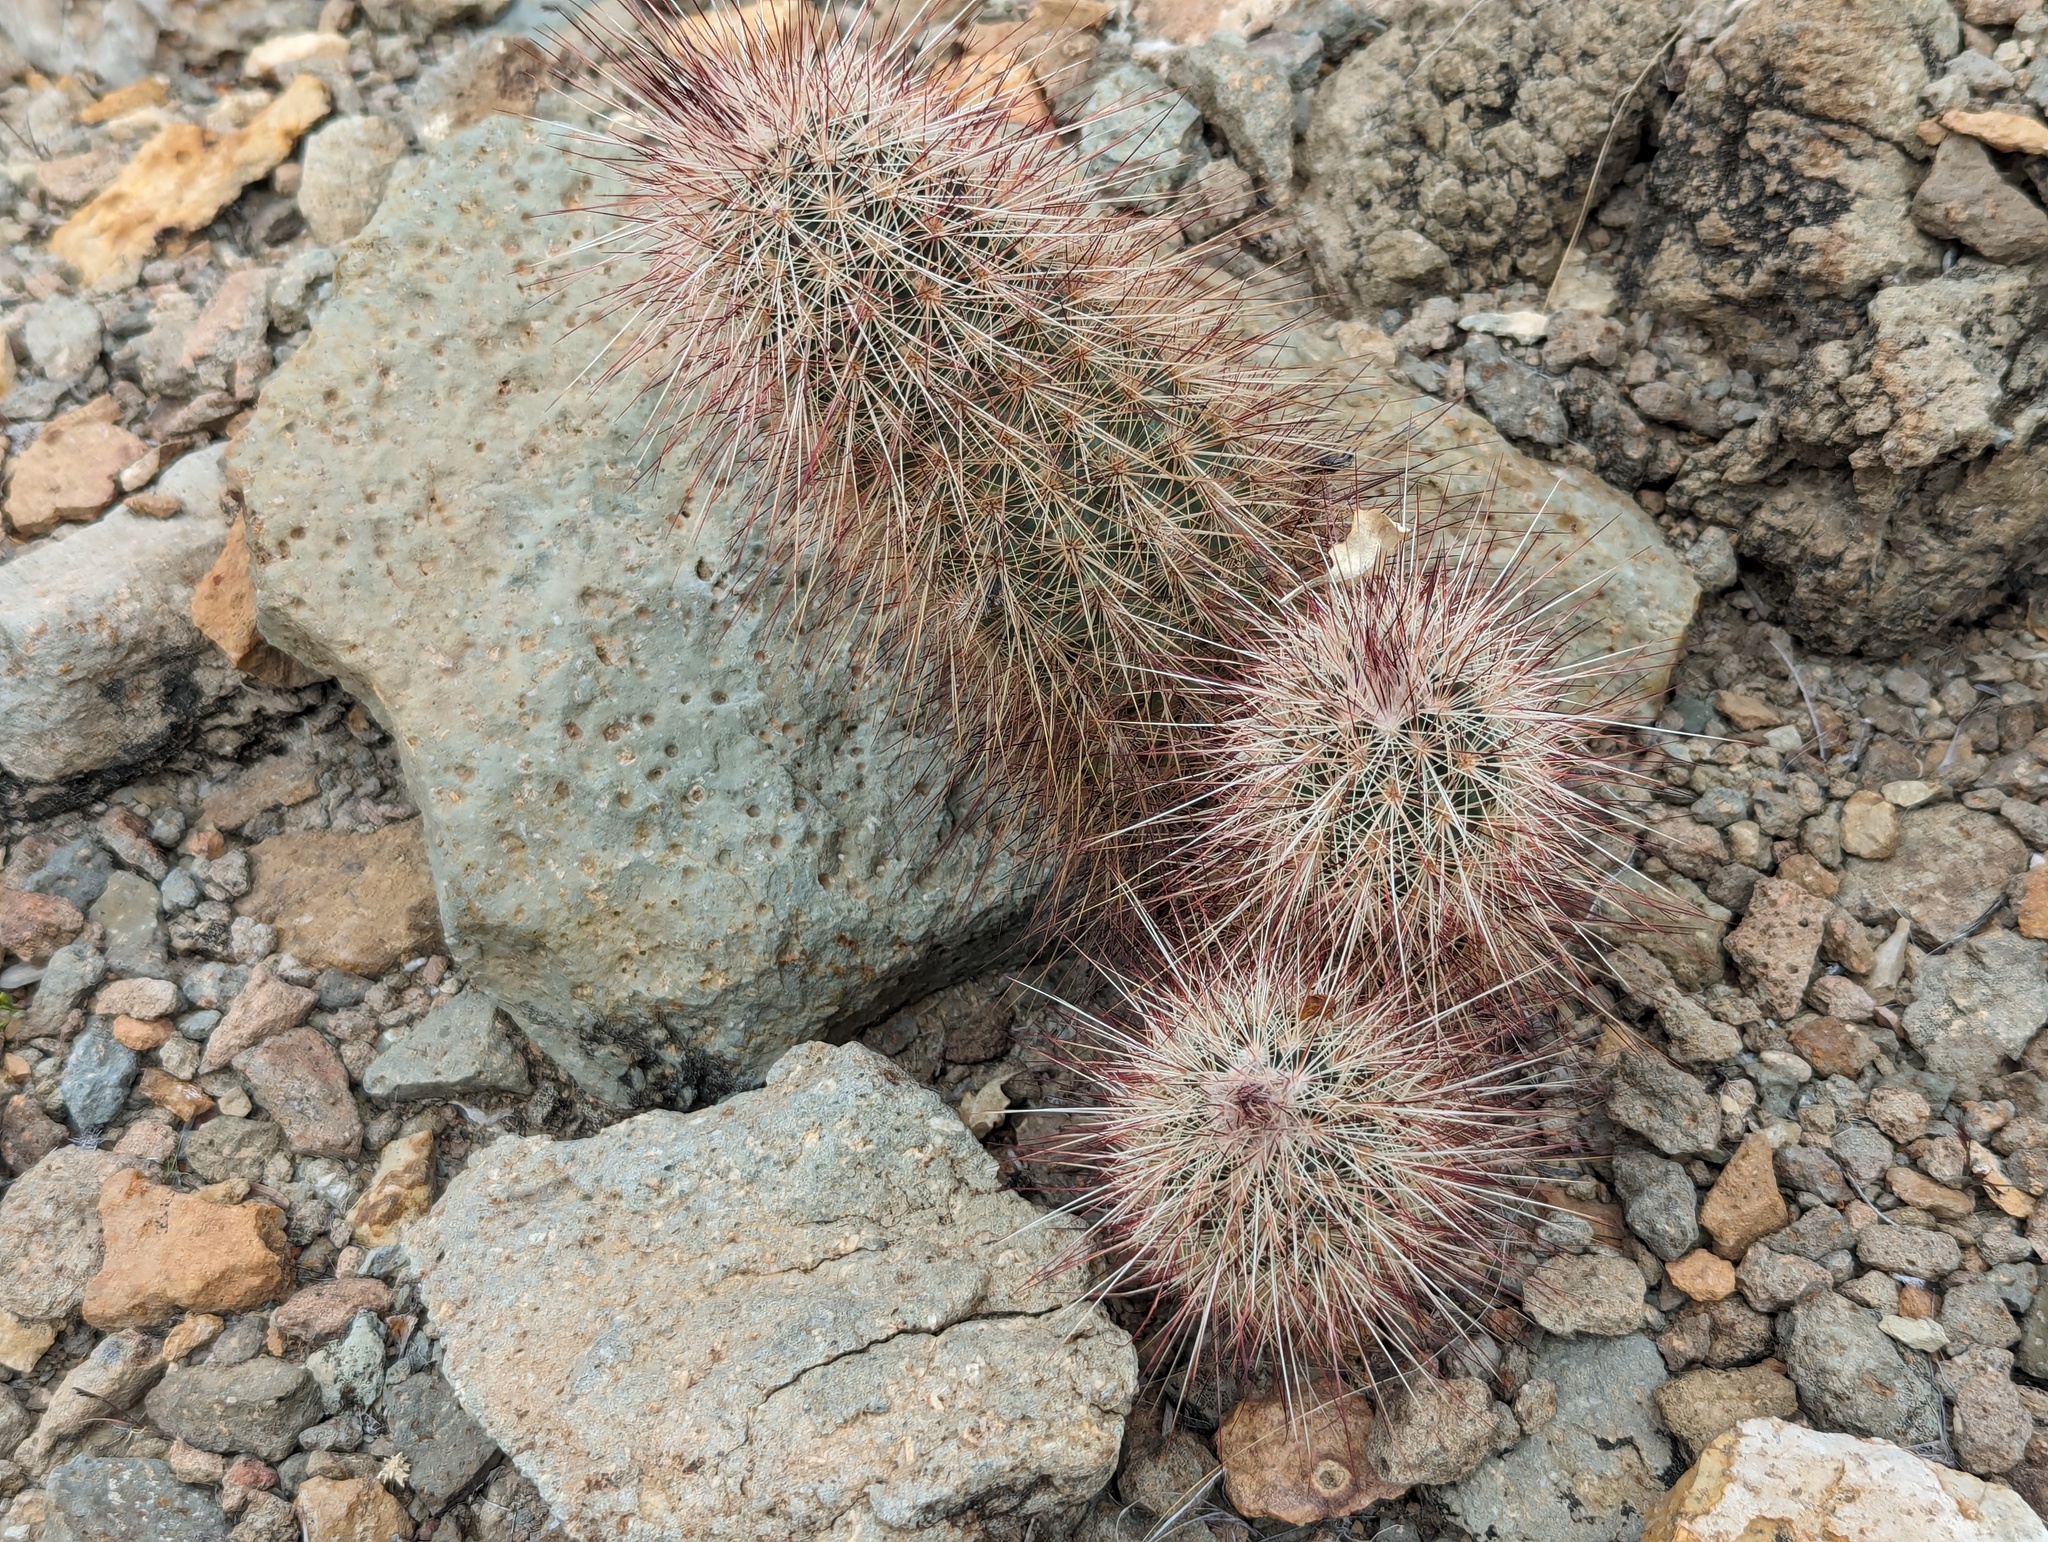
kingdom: Plantae
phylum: Tracheophyta
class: Magnoliopsida
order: Caryophyllales
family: Cactaceae
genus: Echinocereus
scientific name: Echinocereus russanthus
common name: Brownspine hedgehog cactus
